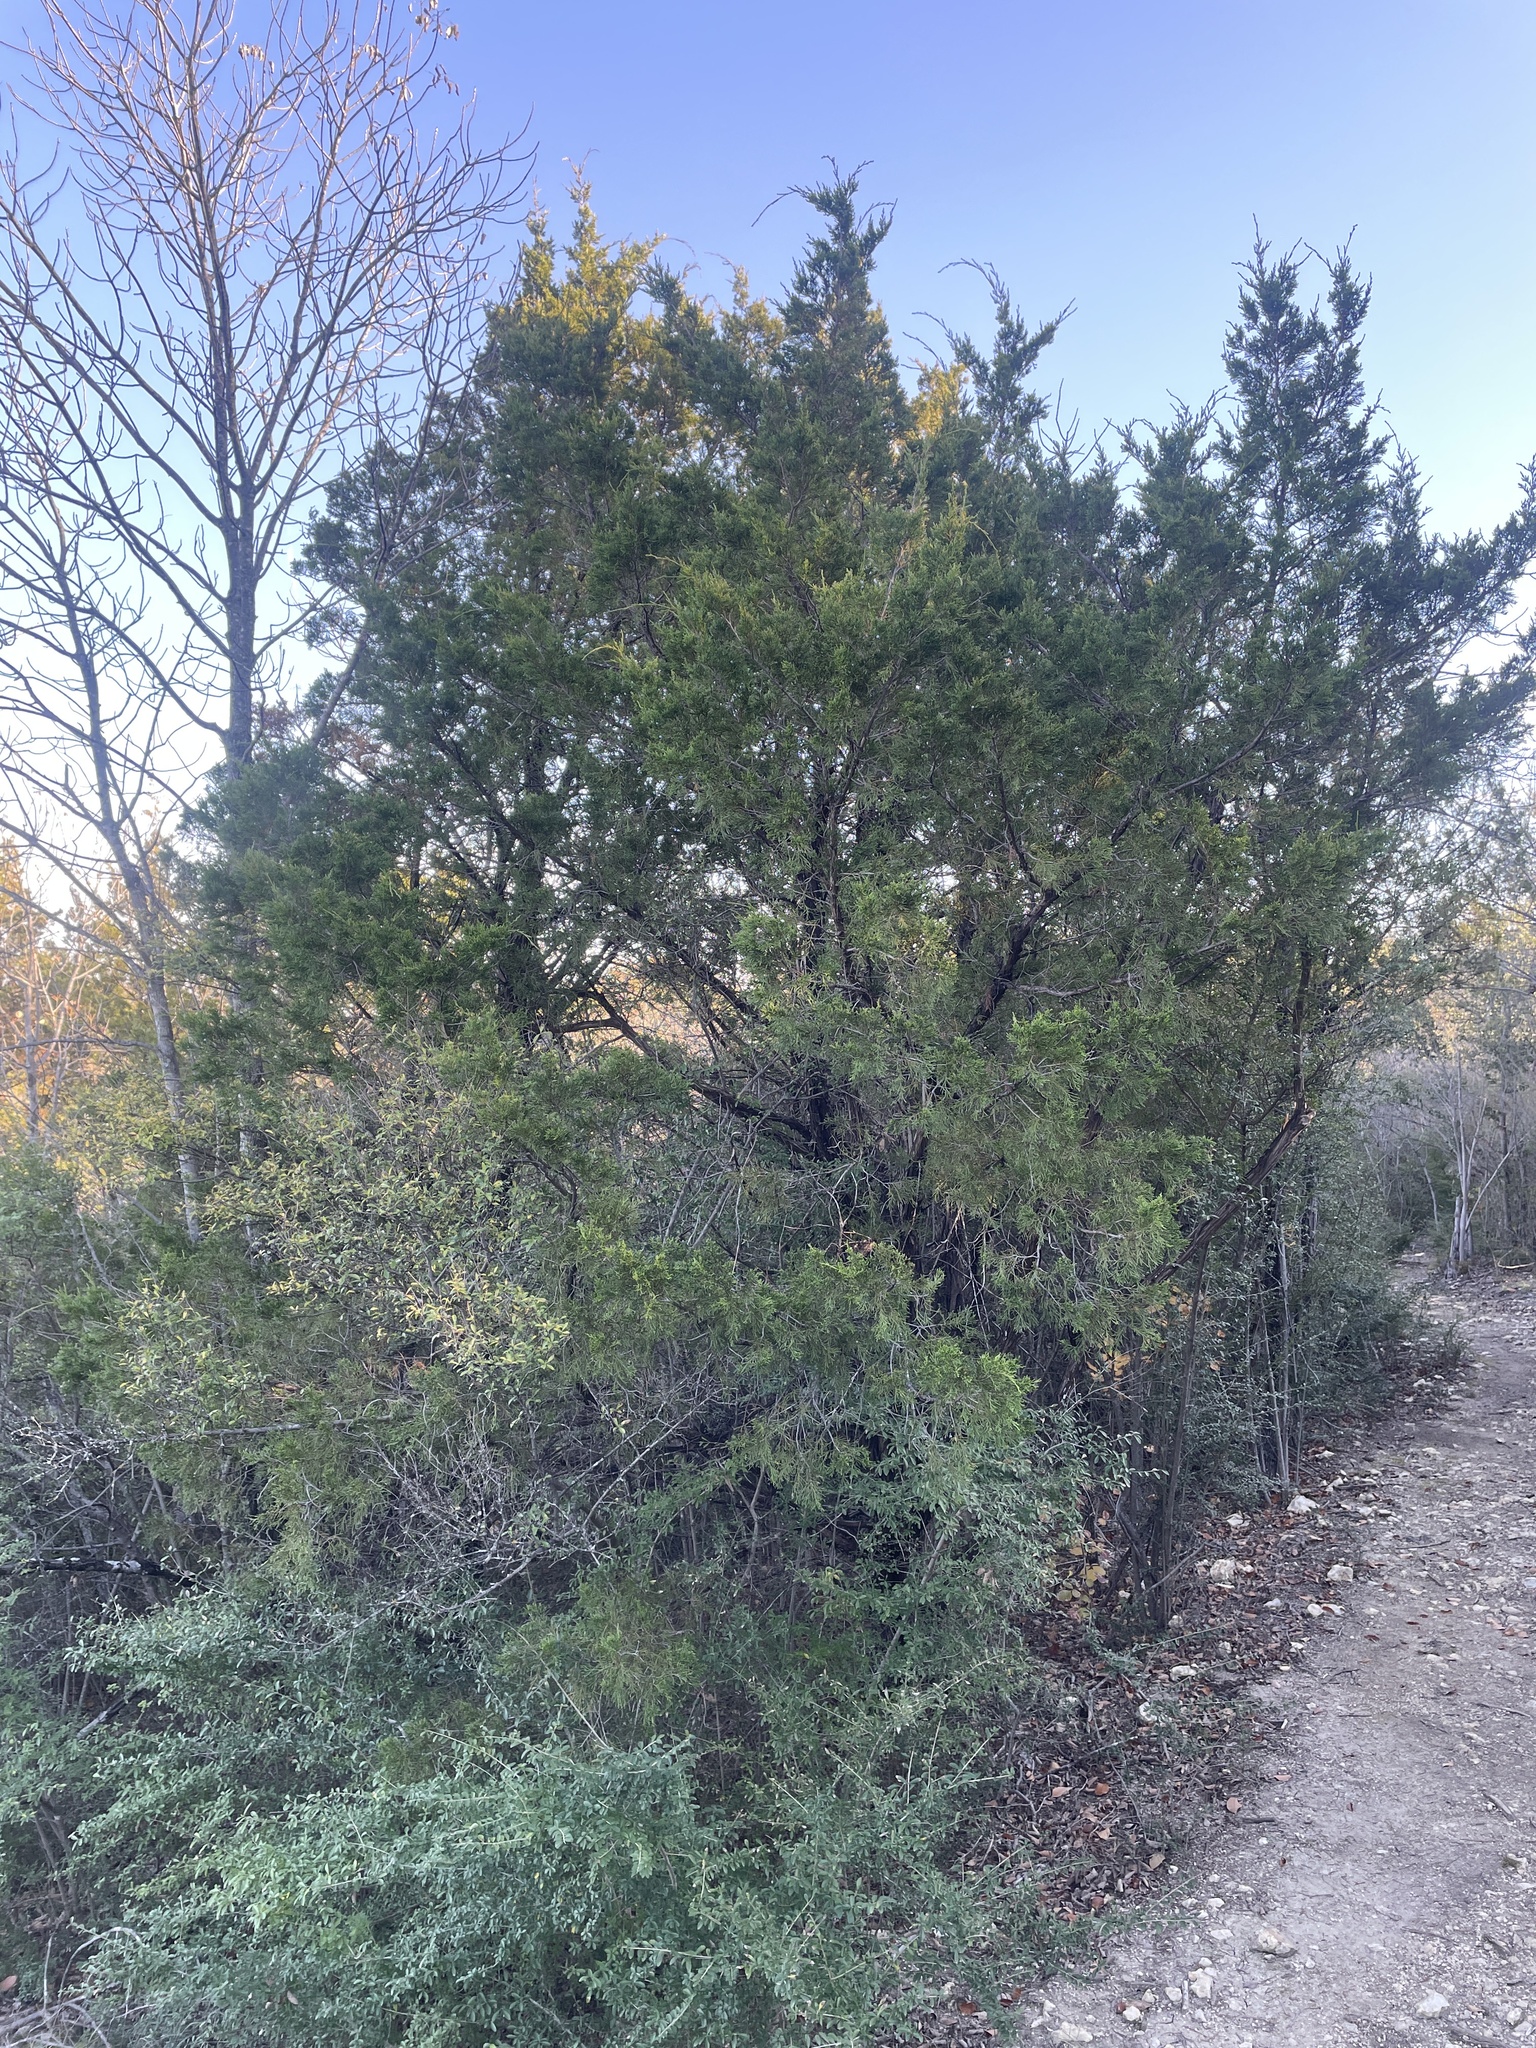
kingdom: Plantae
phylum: Tracheophyta
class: Pinopsida
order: Pinales
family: Cupressaceae
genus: Juniperus
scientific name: Juniperus virginiana
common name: Red juniper
